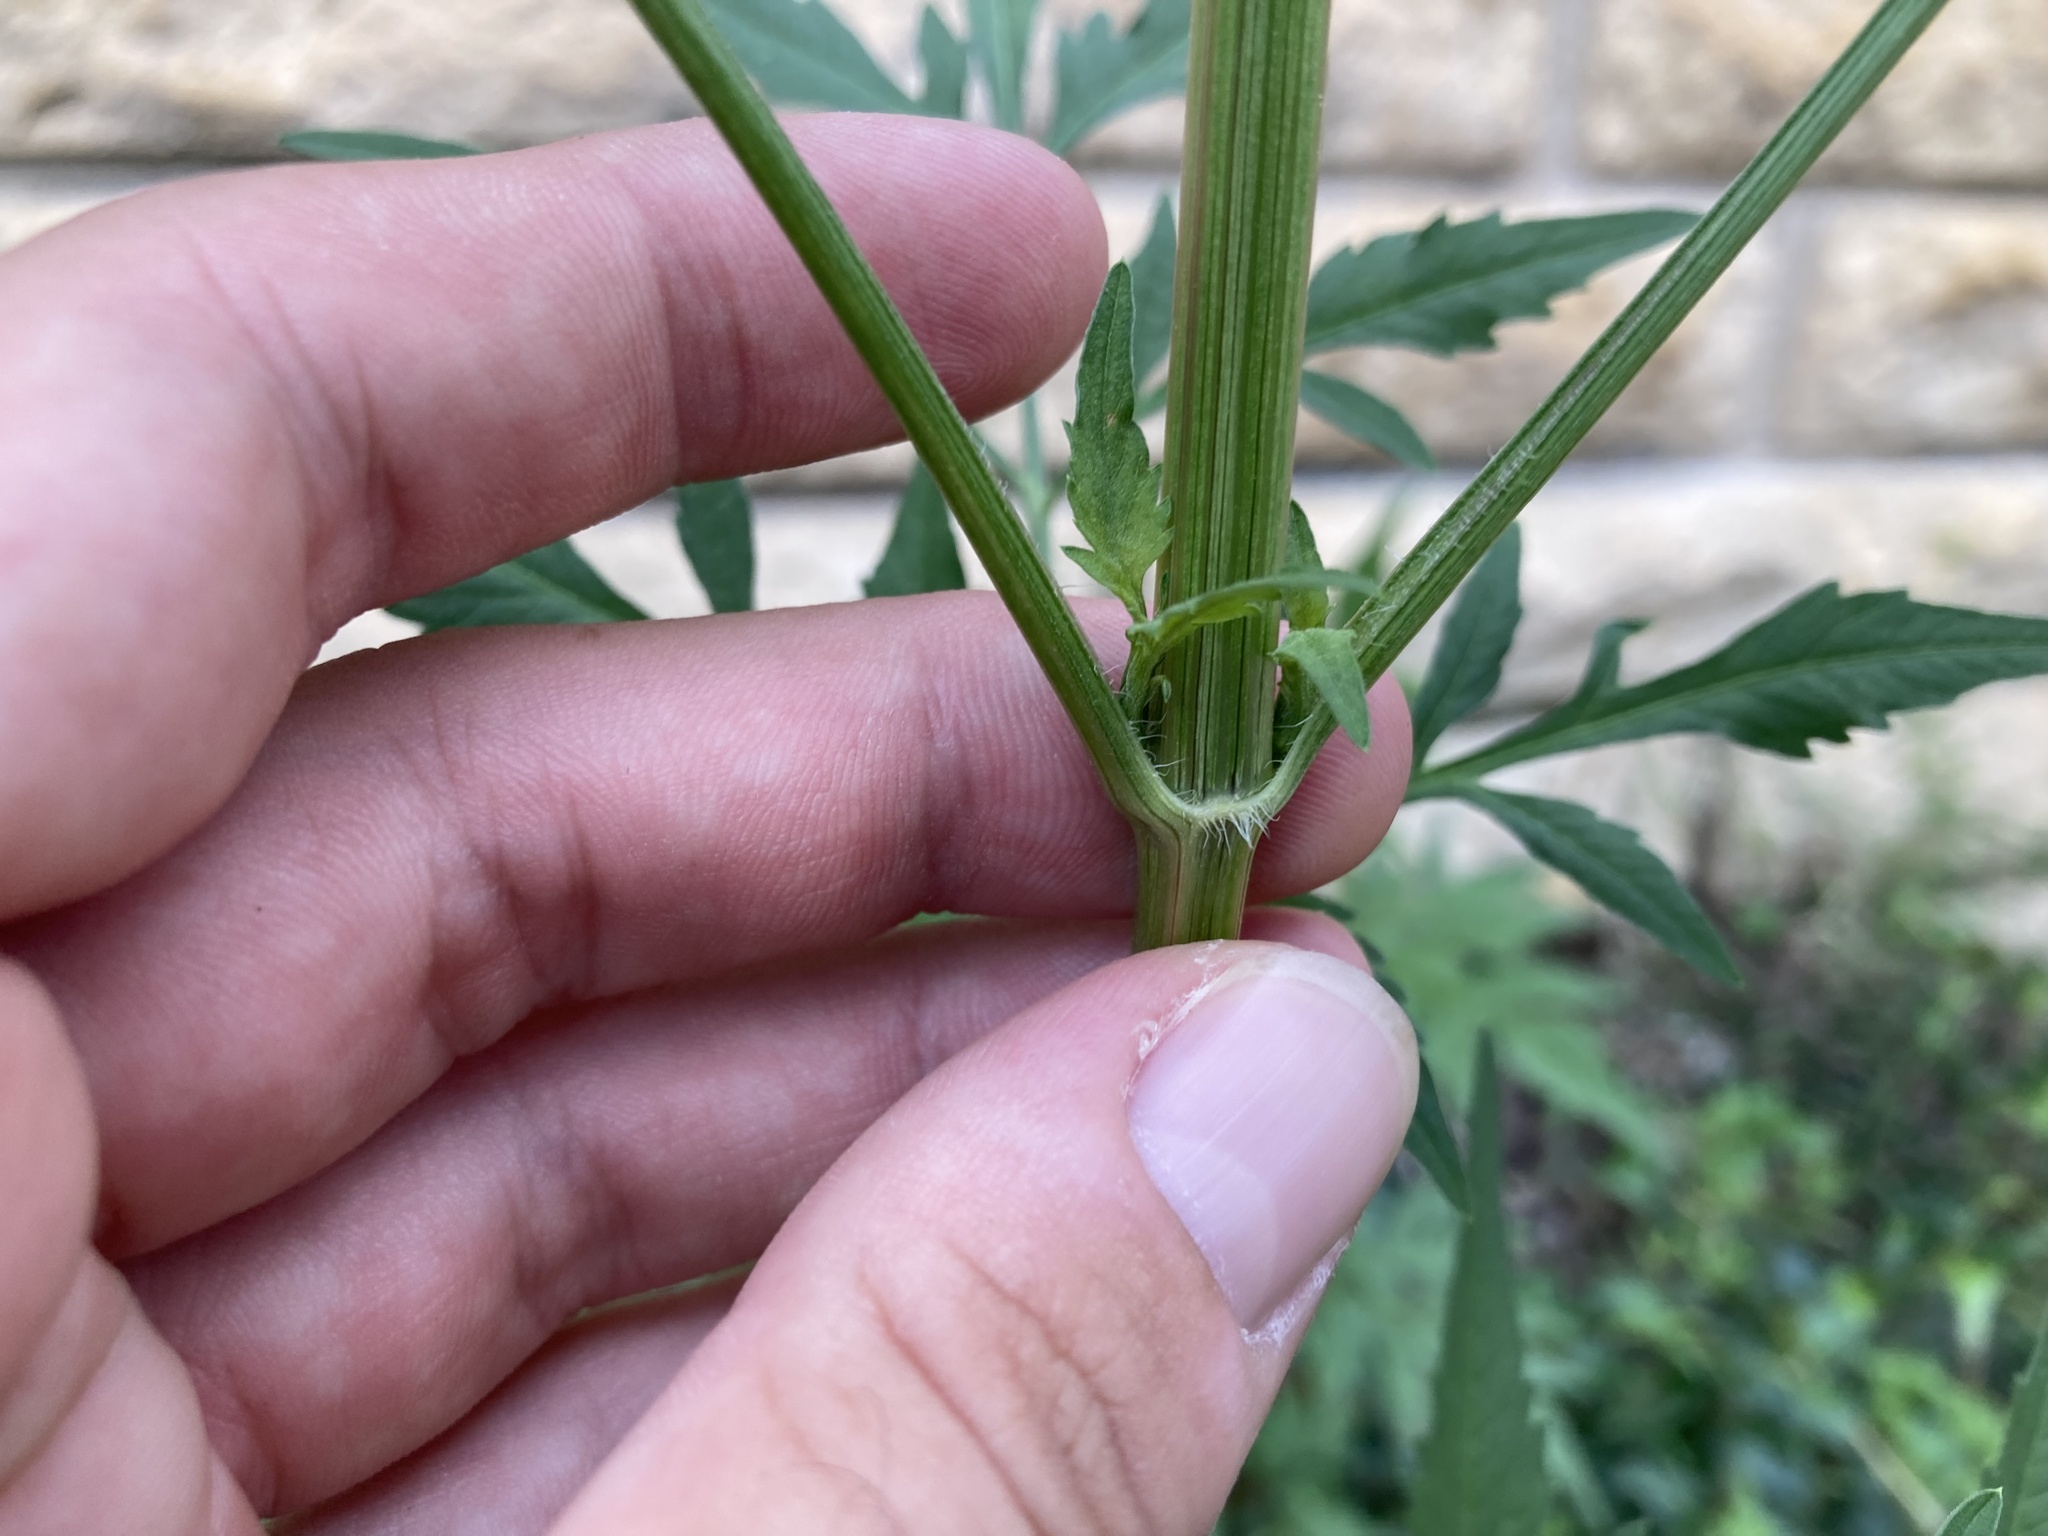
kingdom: Plantae
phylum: Tracheophyta
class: Magnoliopsida
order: Asterales
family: Asteraceae
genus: Bidens
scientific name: Bidens subalternans
